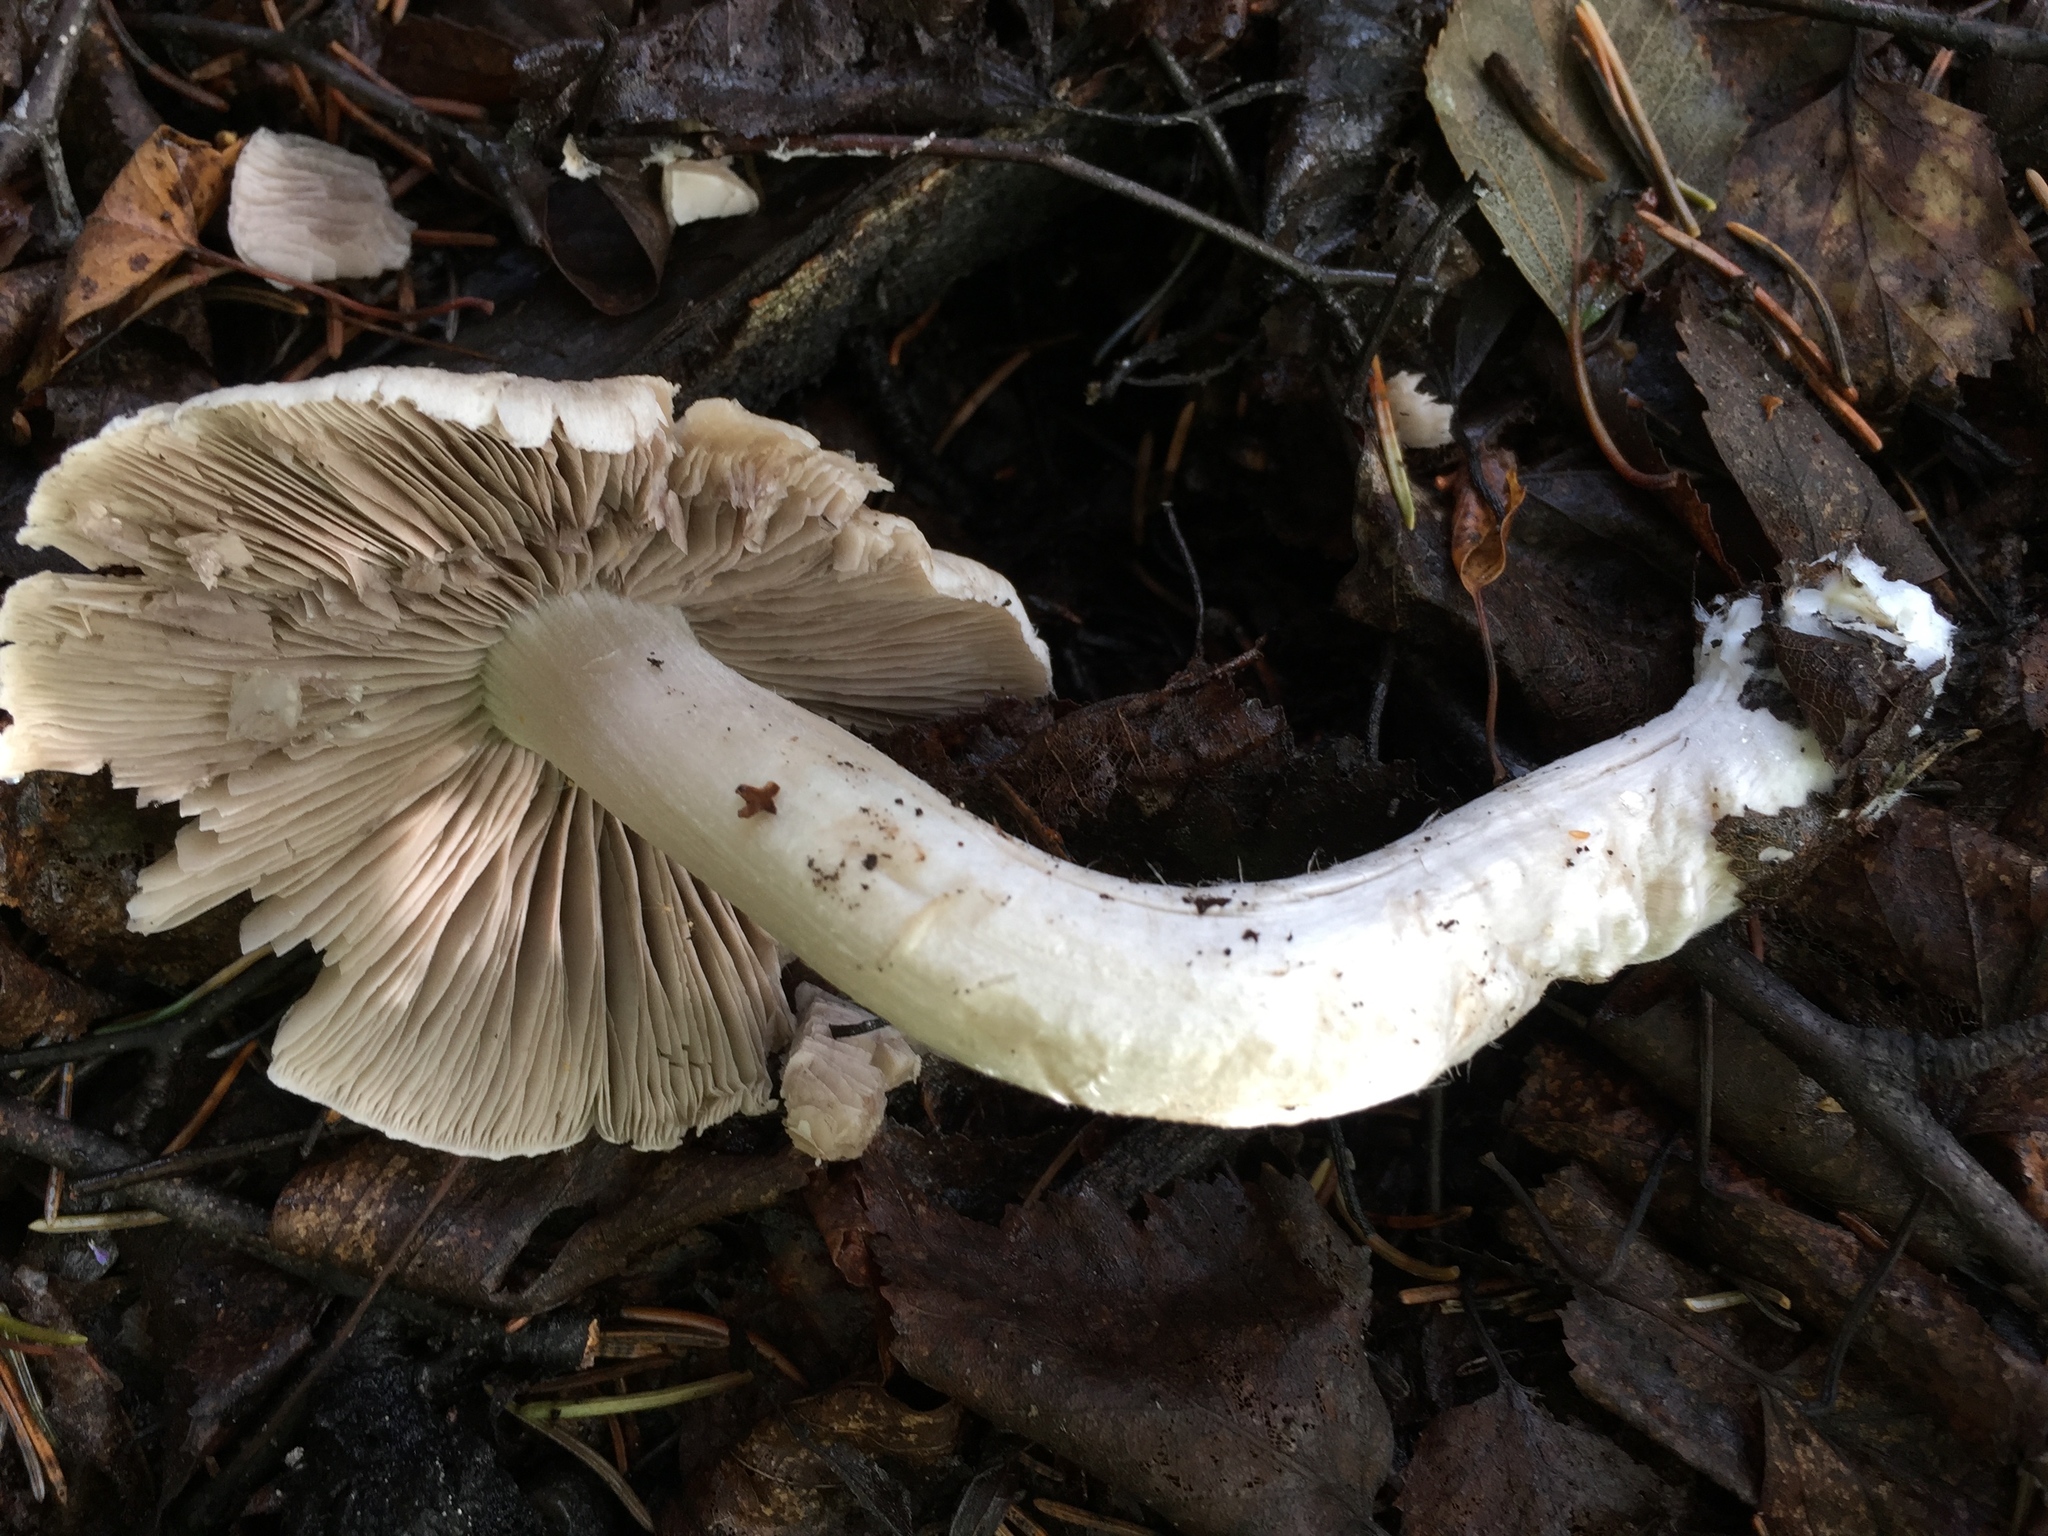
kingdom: Fungi
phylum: Basidiomycota
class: Agaricomycetes
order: Agaricales
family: Psathyrellaceae
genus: Psathyrella
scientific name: Psathyrella uliginicola
